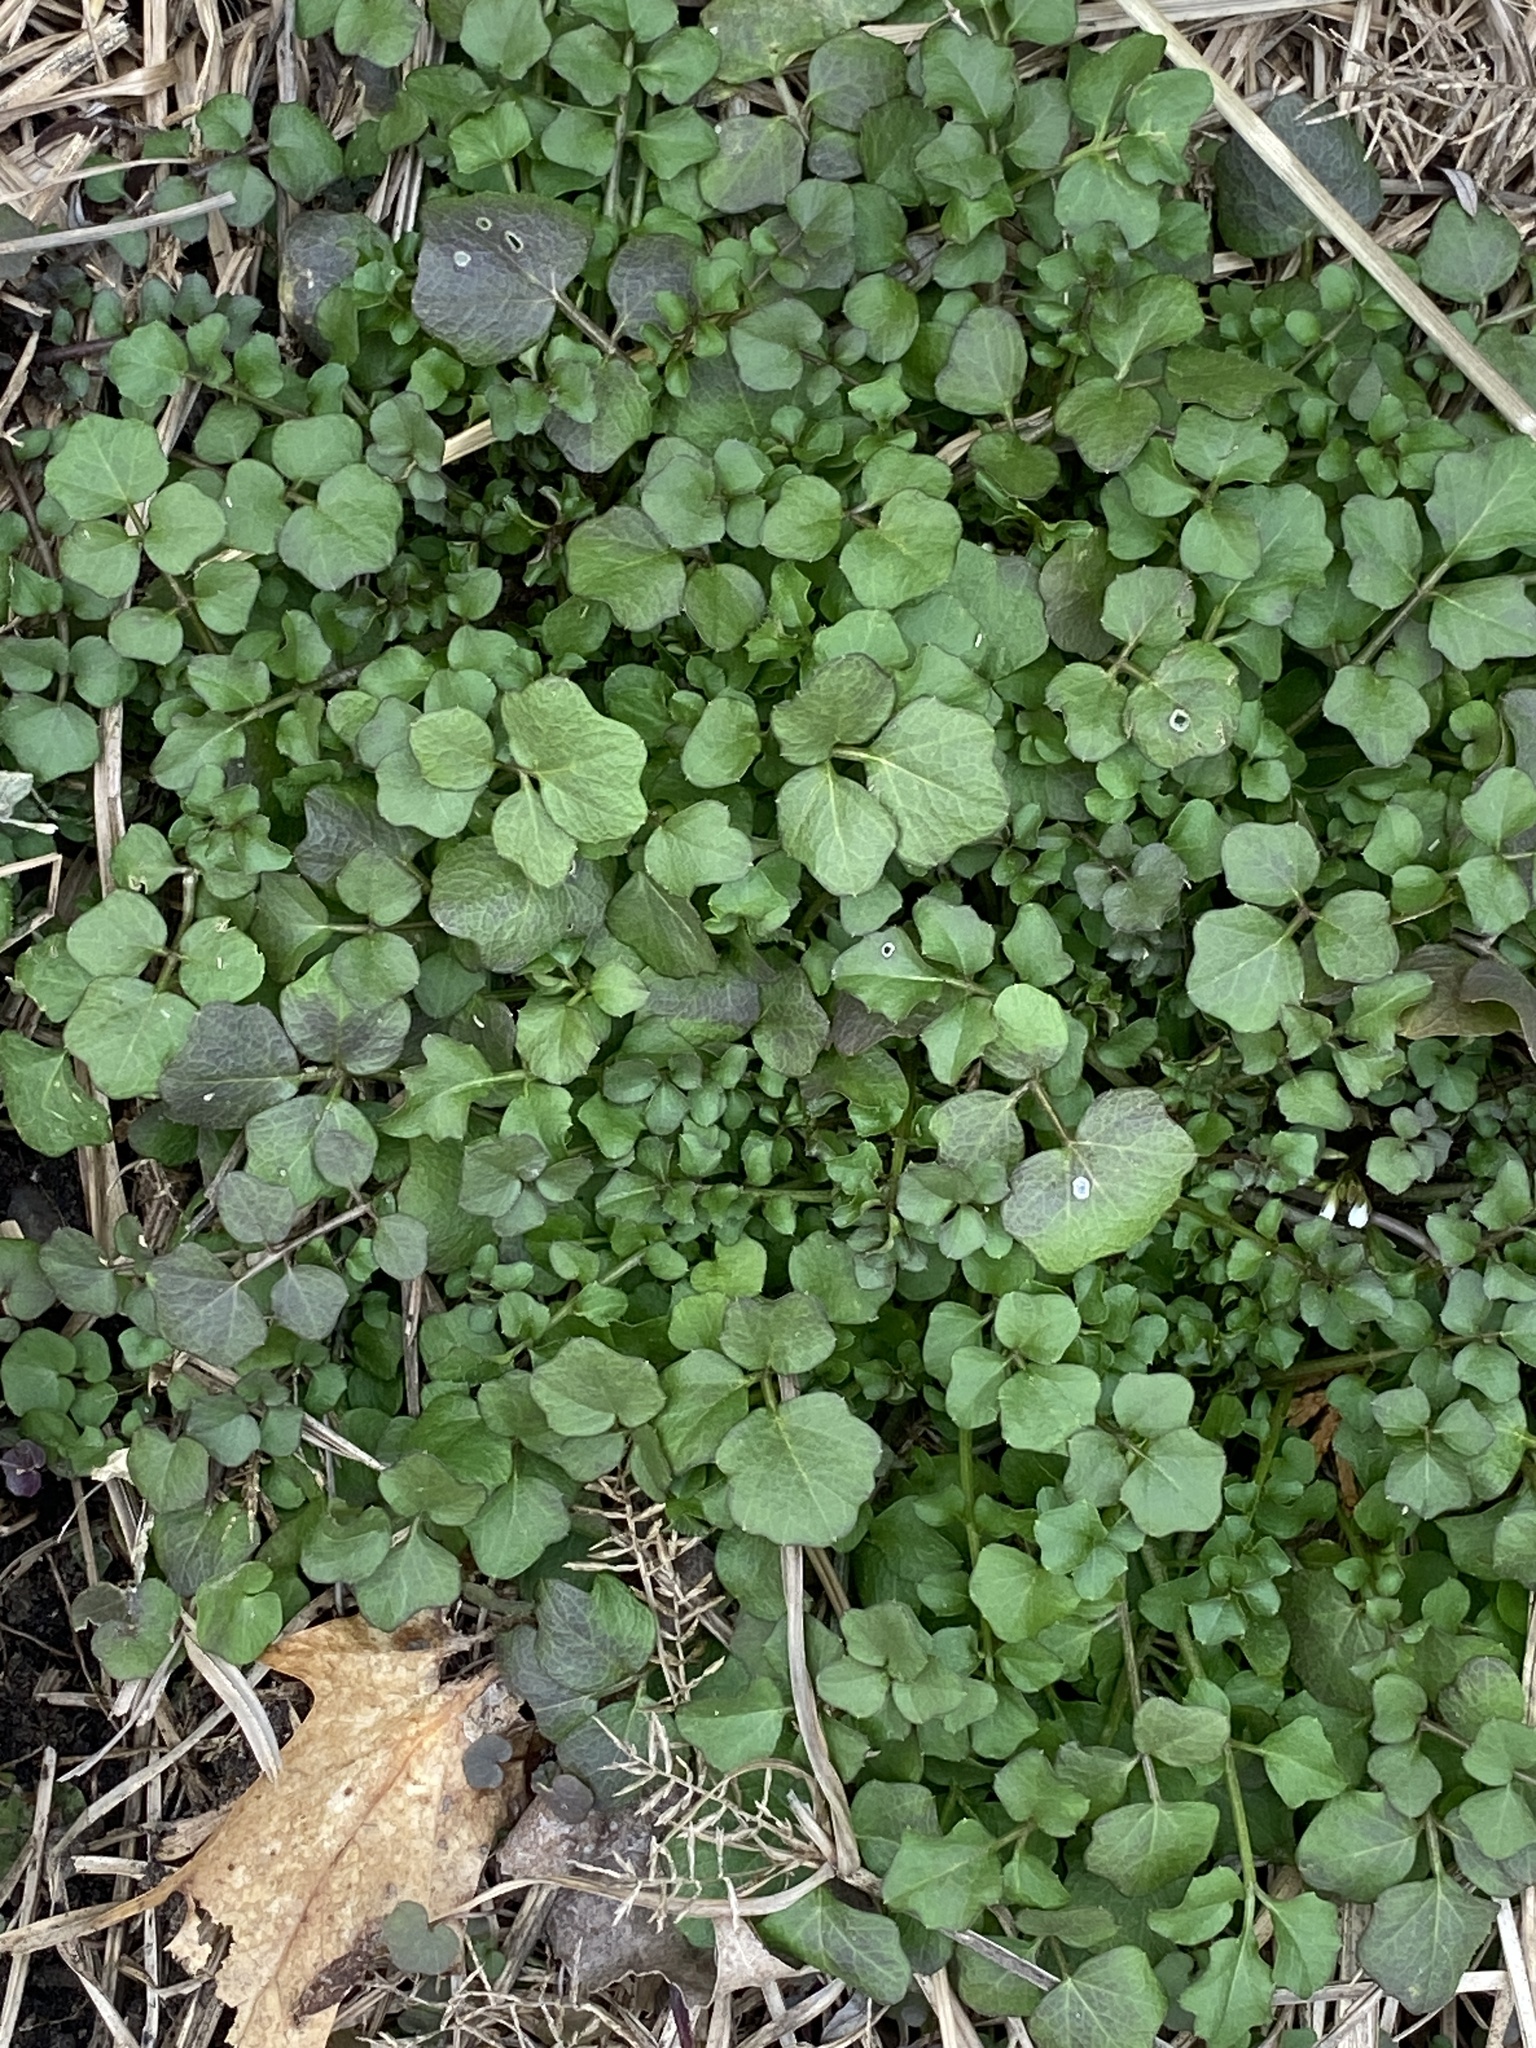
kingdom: Plantae
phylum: Tracheophyta
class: Magnoliopsida
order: Brassicales
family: Brassicaceae
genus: Cardamine
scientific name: Cardamine hirsuta
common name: Hairy bittercress
